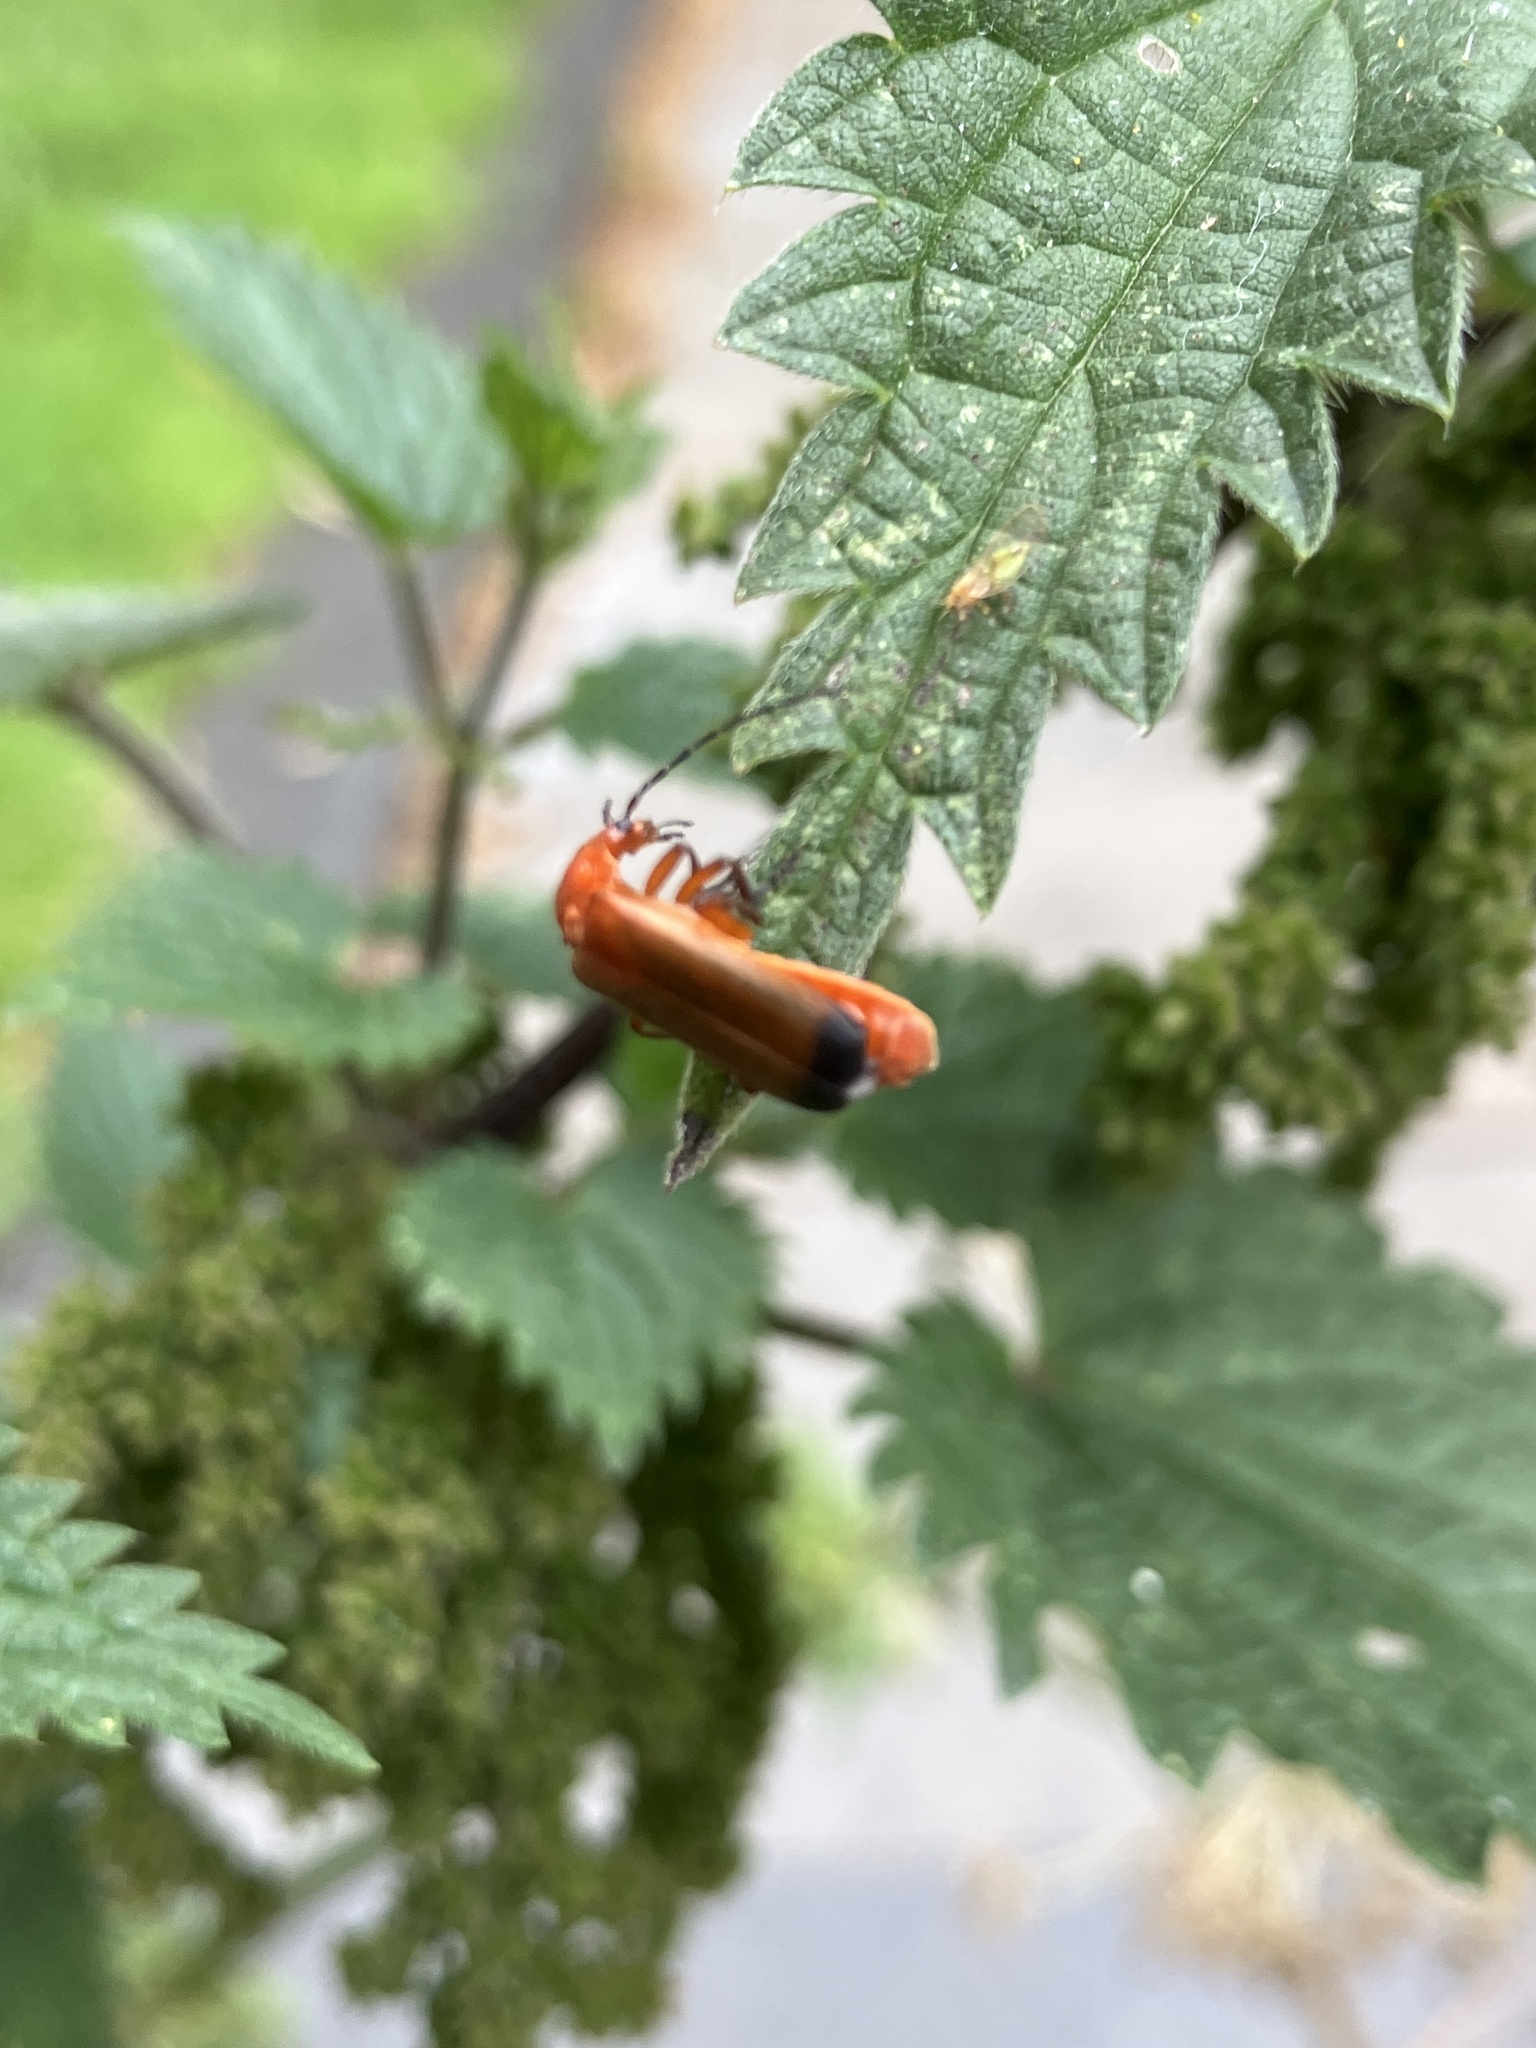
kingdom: Animalia
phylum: Arthropoda
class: Insecta
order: Coleoptera
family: Cantharidae
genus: Rhagonycha
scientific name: Rhagonycha fulva
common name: Common red soldier beetle
